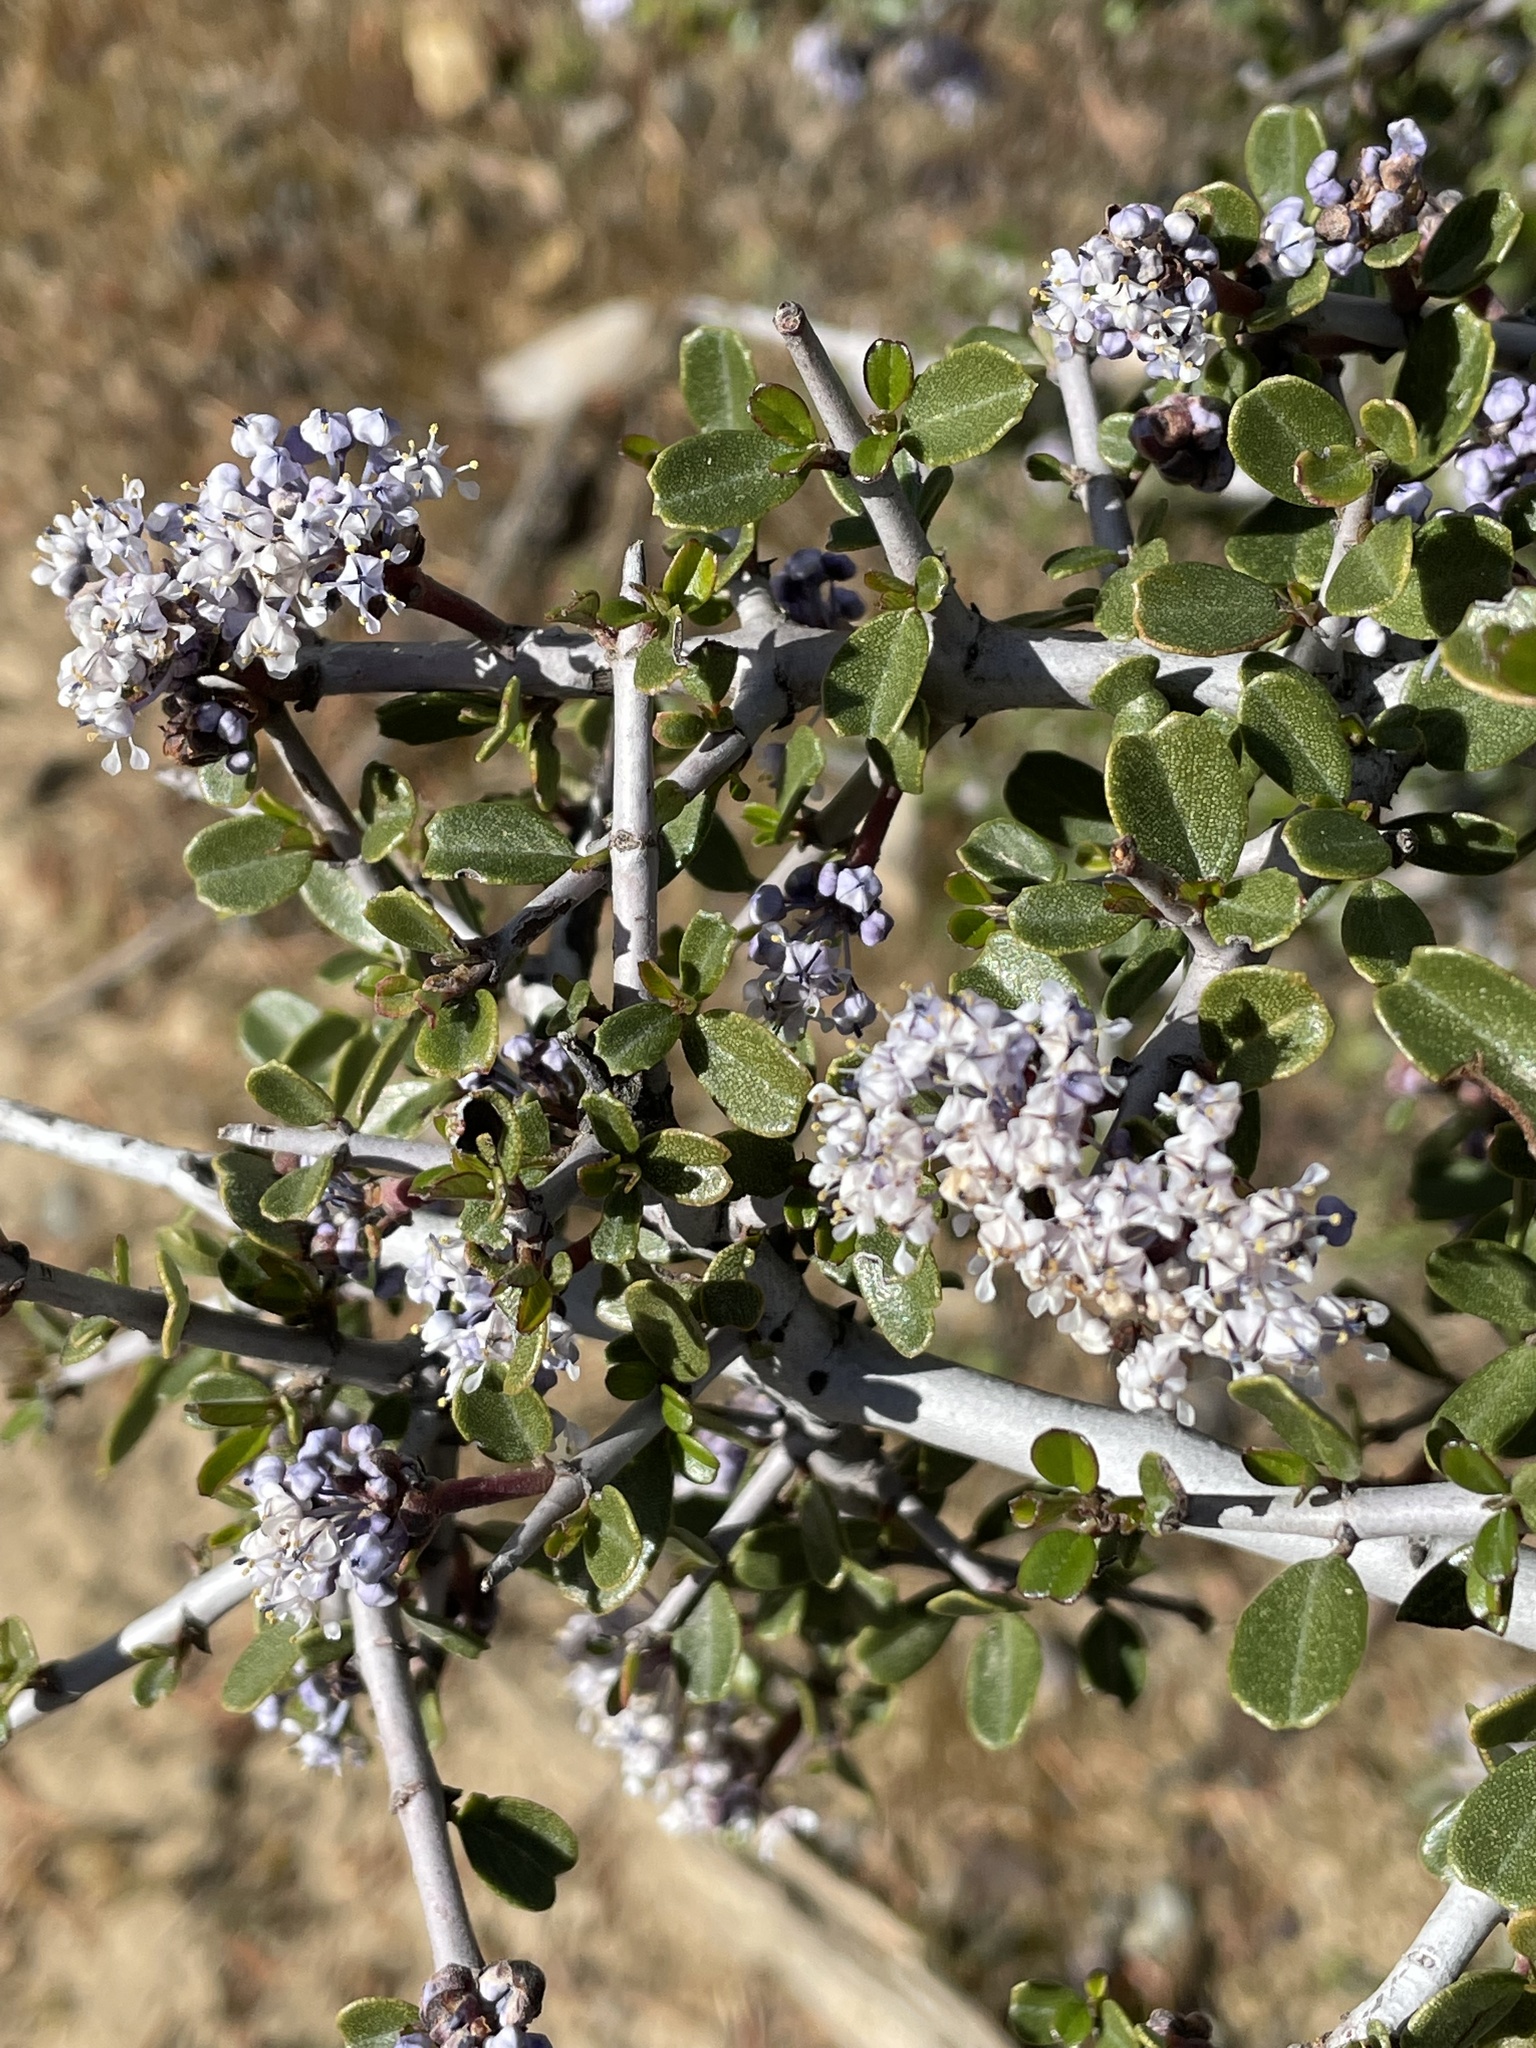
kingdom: Plantae
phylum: Tracheophyta
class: Magnoliopsida
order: Rosales
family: Rhamnaceae
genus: Ceanothus
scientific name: Ceanothus cuneatus
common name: Cuneate ceanothus
